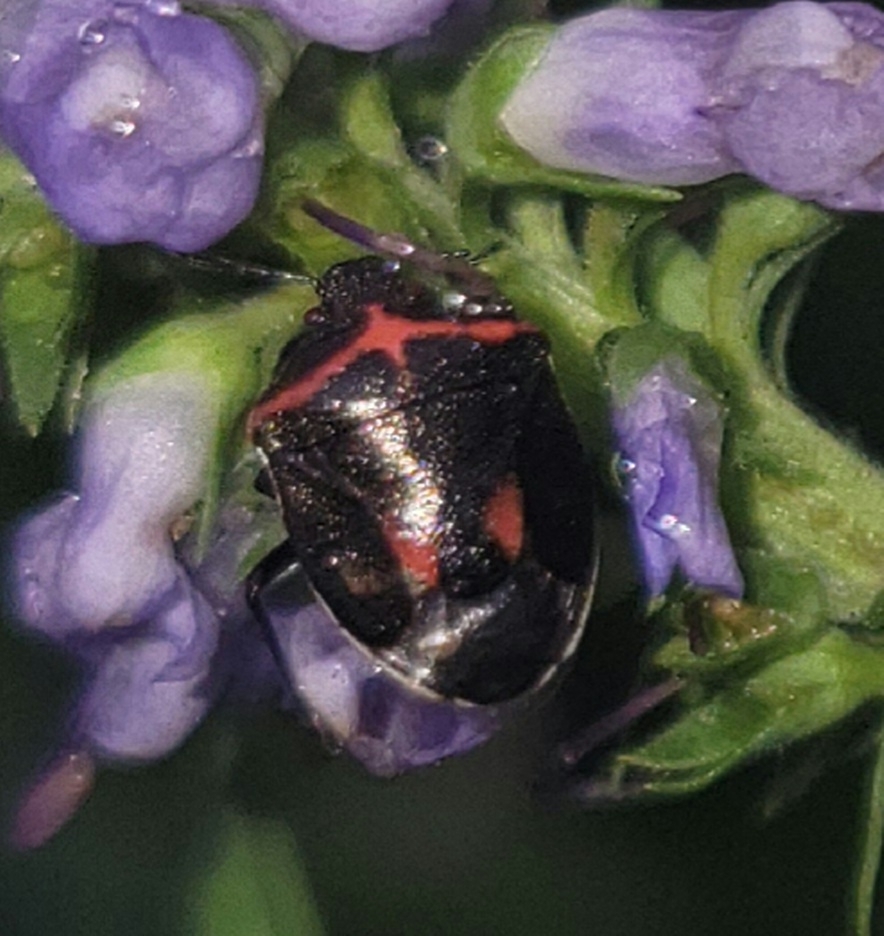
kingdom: Animalia
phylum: Arthropoda
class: Insecta
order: Hemiptera
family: Pentatomidae
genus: Cosmopepla
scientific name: Cosmopepla lintneriana
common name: Twice-stabbed stink bug
